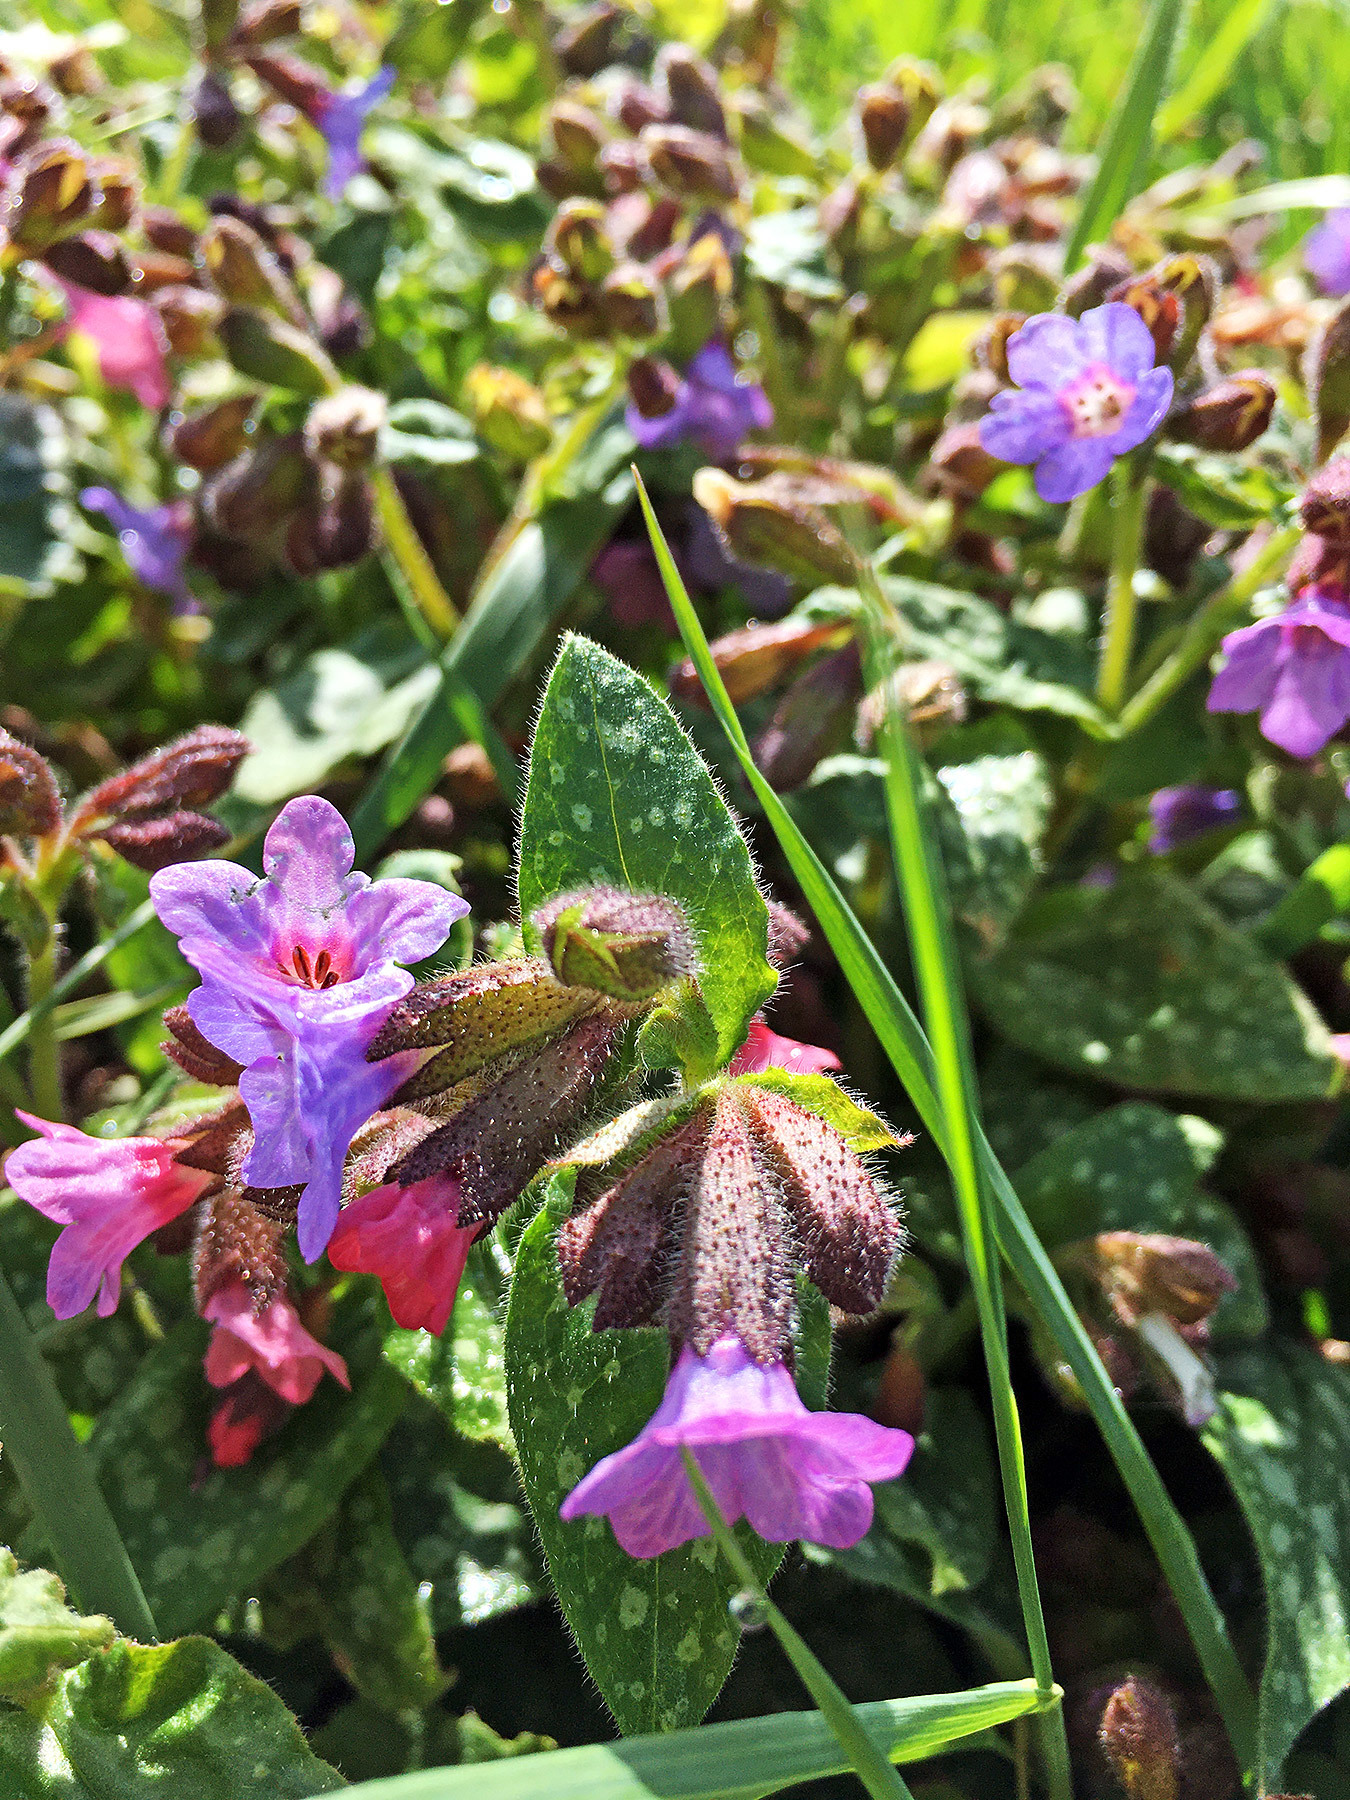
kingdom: Plantae
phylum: Tracheophyta
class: Magnoliopsida
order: Boraginales
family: Boraginaceae
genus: Pulmonaria
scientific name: Pulmonaria officinalis
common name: Lungwort
